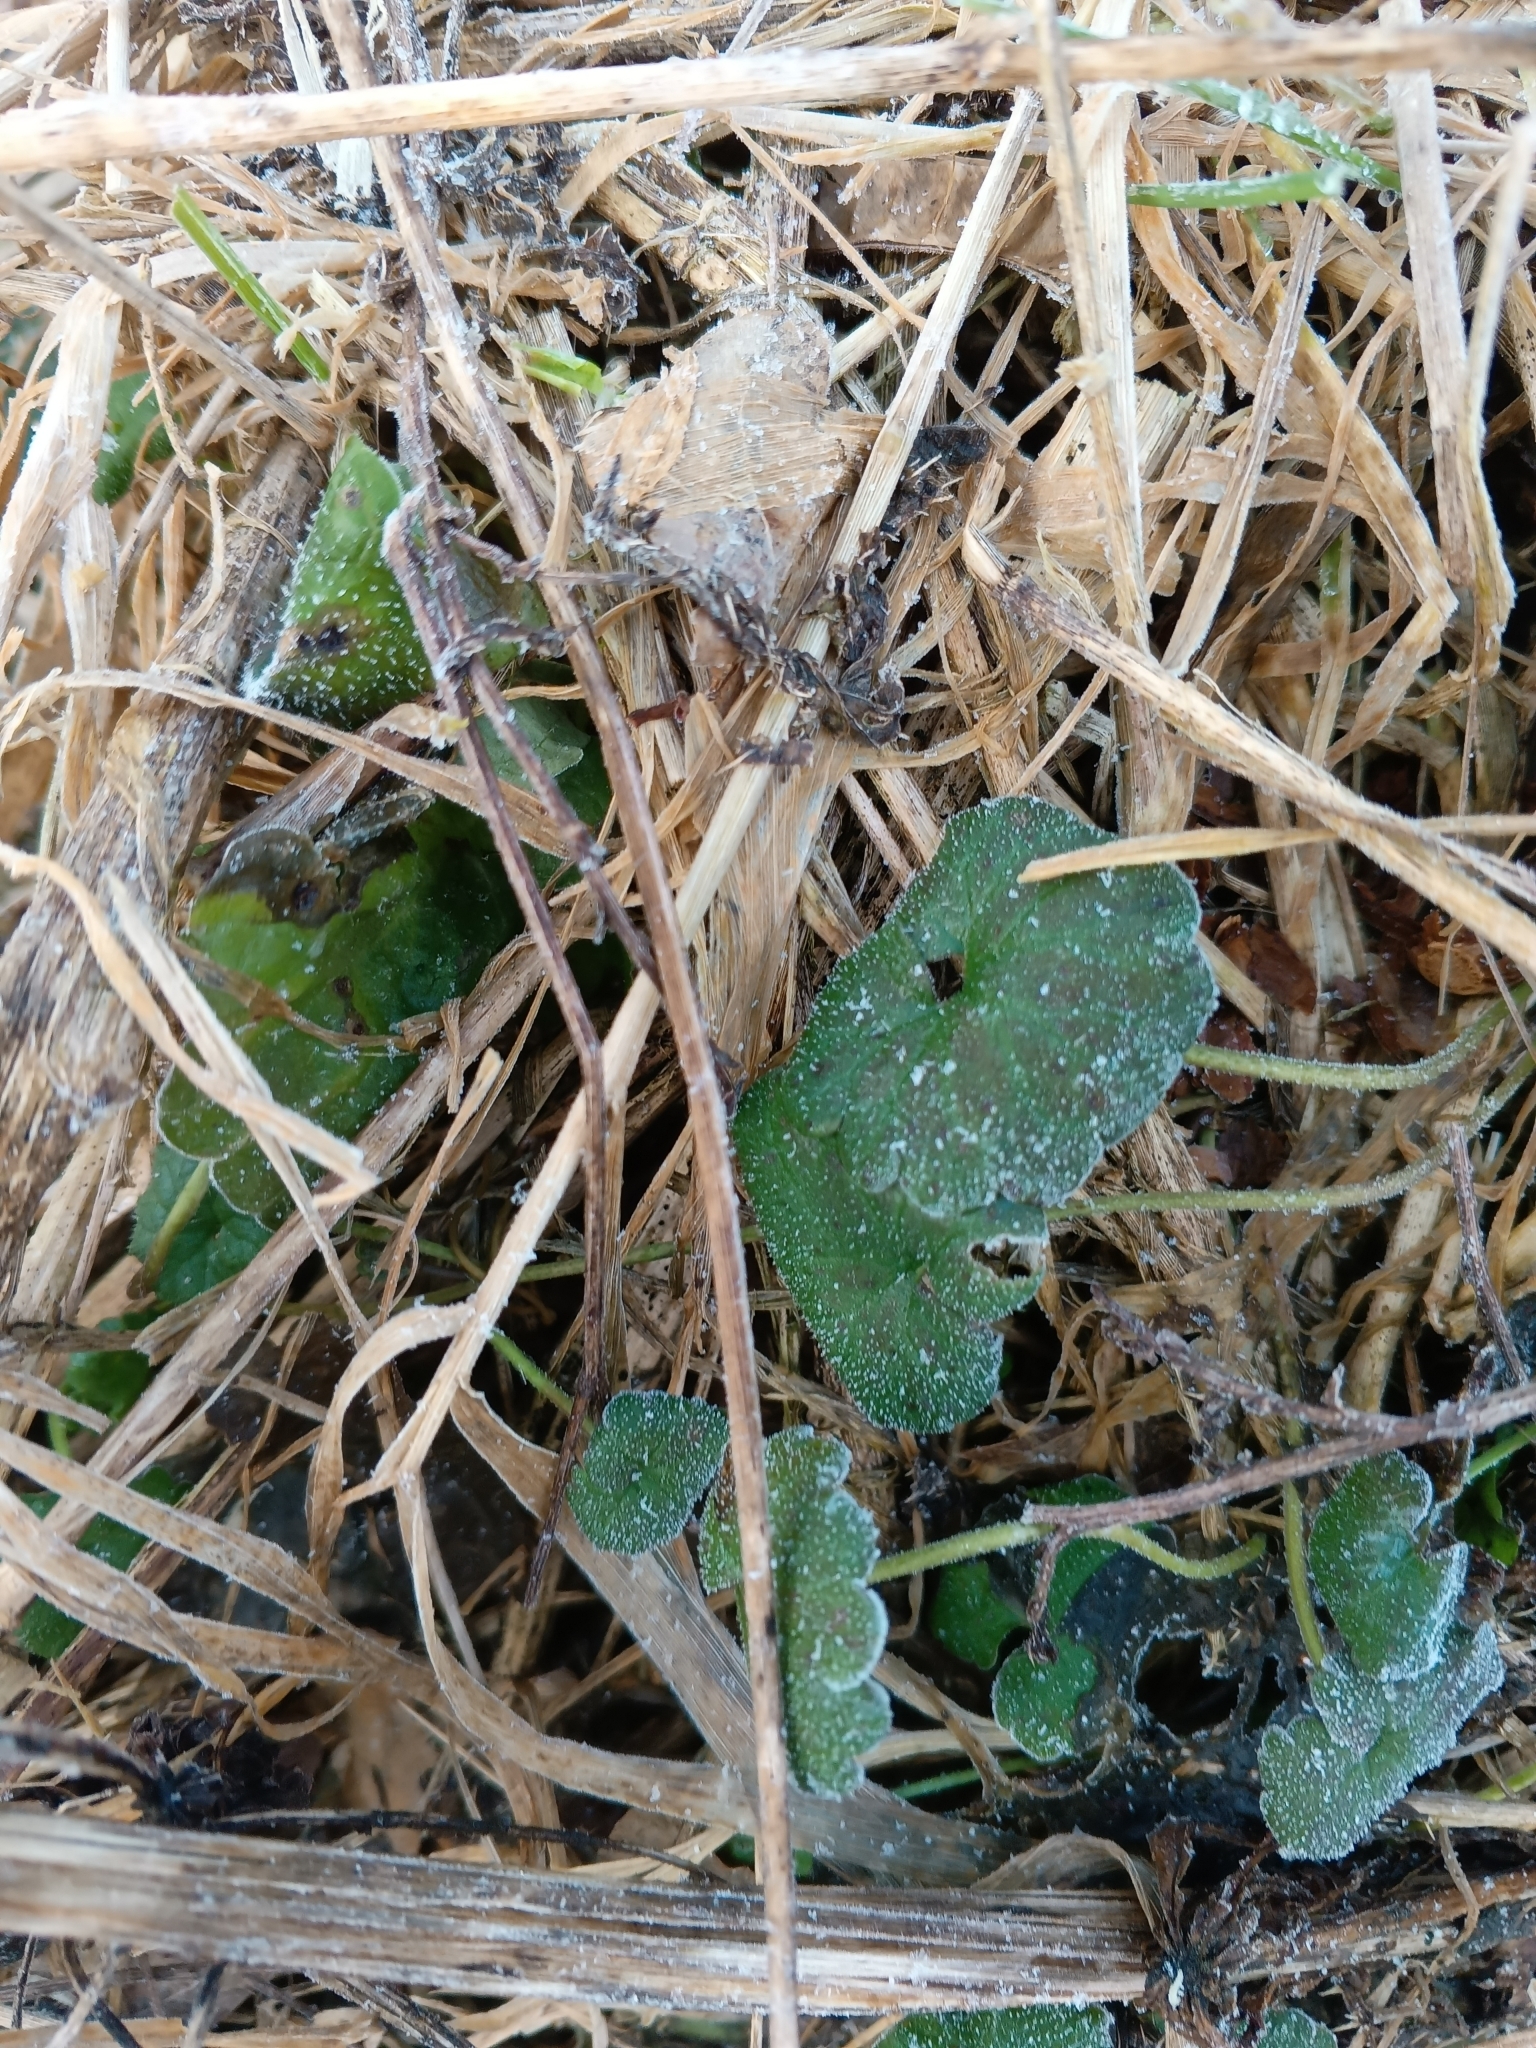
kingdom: Plantae
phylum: Tracheophyta
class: Magnoliopsida
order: Lamiales
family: Lamiaceae
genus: Glechoma
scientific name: Glechoma hederacea
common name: Ground ivy
